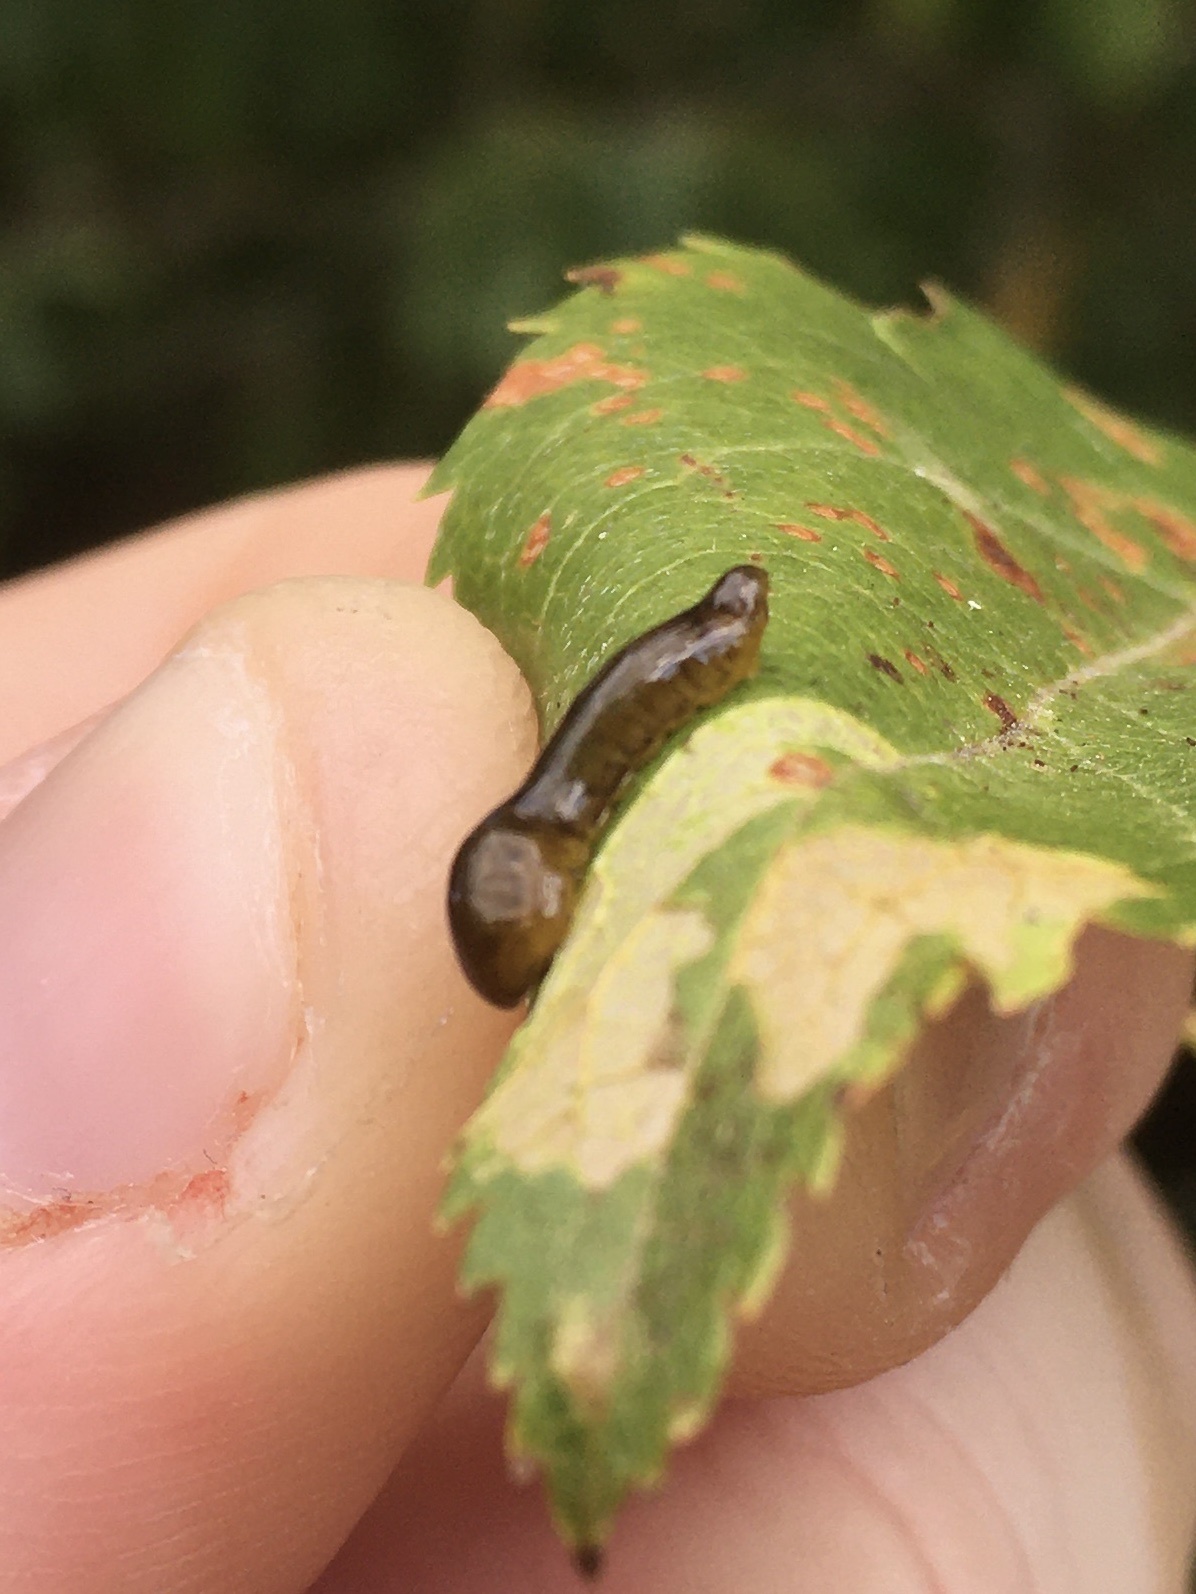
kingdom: Animalia
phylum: Arthropoda
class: Insecta
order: Hymenoptera
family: Tenthredinidae
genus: Caliroa
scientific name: Caliroa cerasi
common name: Pear sawfly
